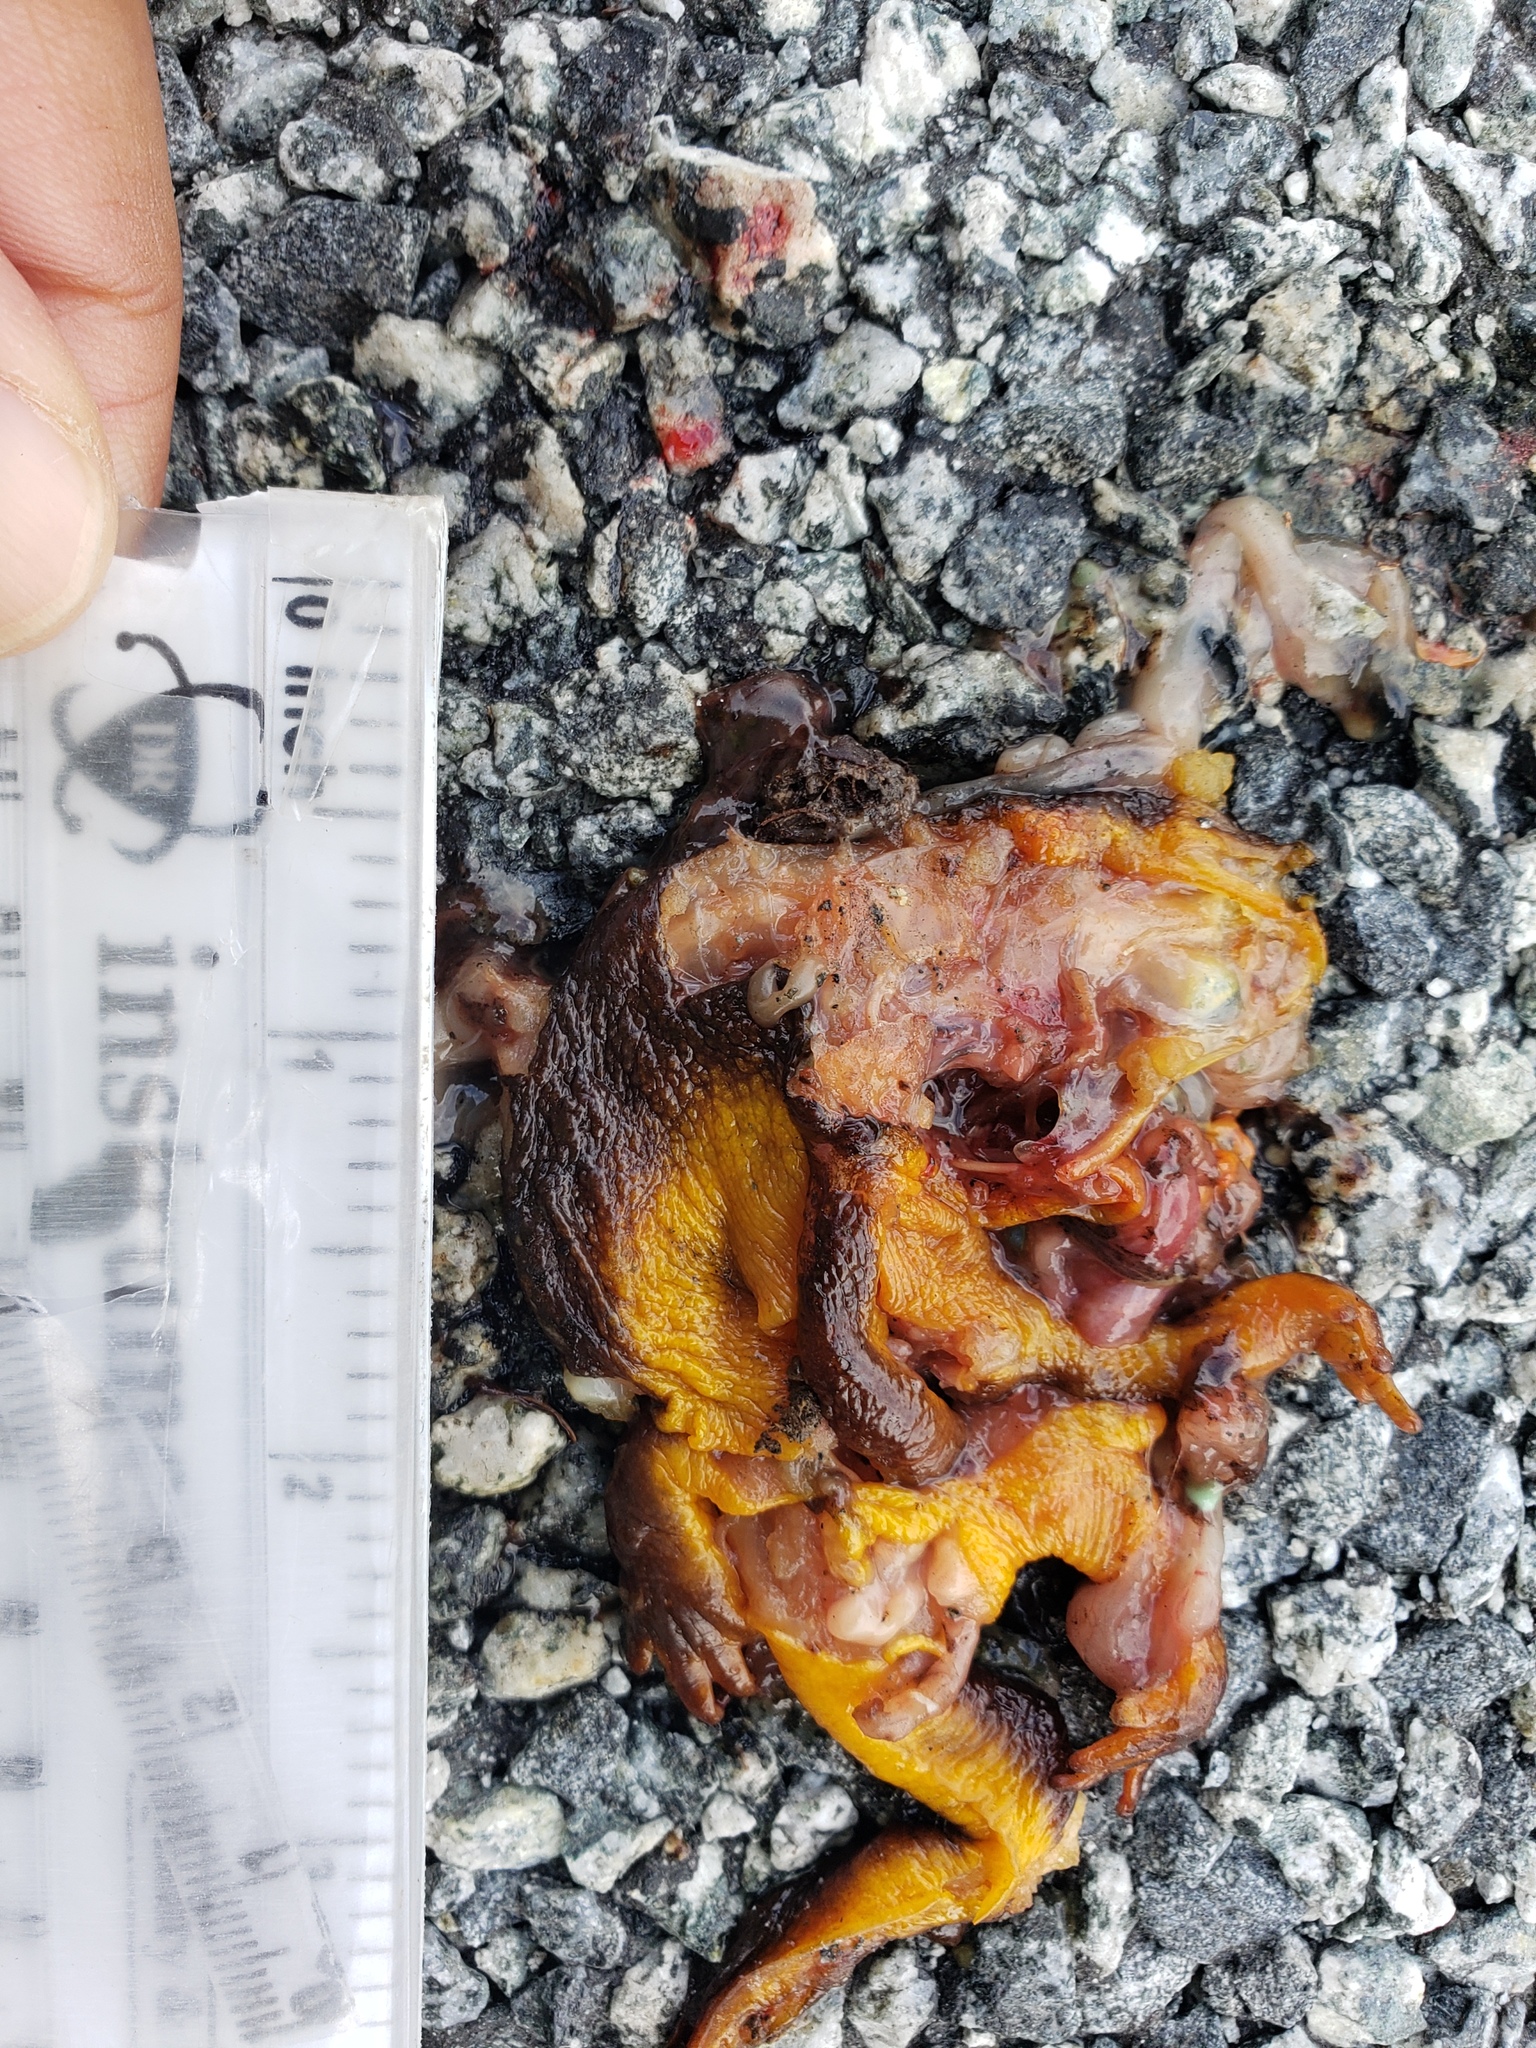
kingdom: Animalia
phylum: Chordata
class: Amphibia
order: Caudata
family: Salamandridae
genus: Taricha
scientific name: Taricha
